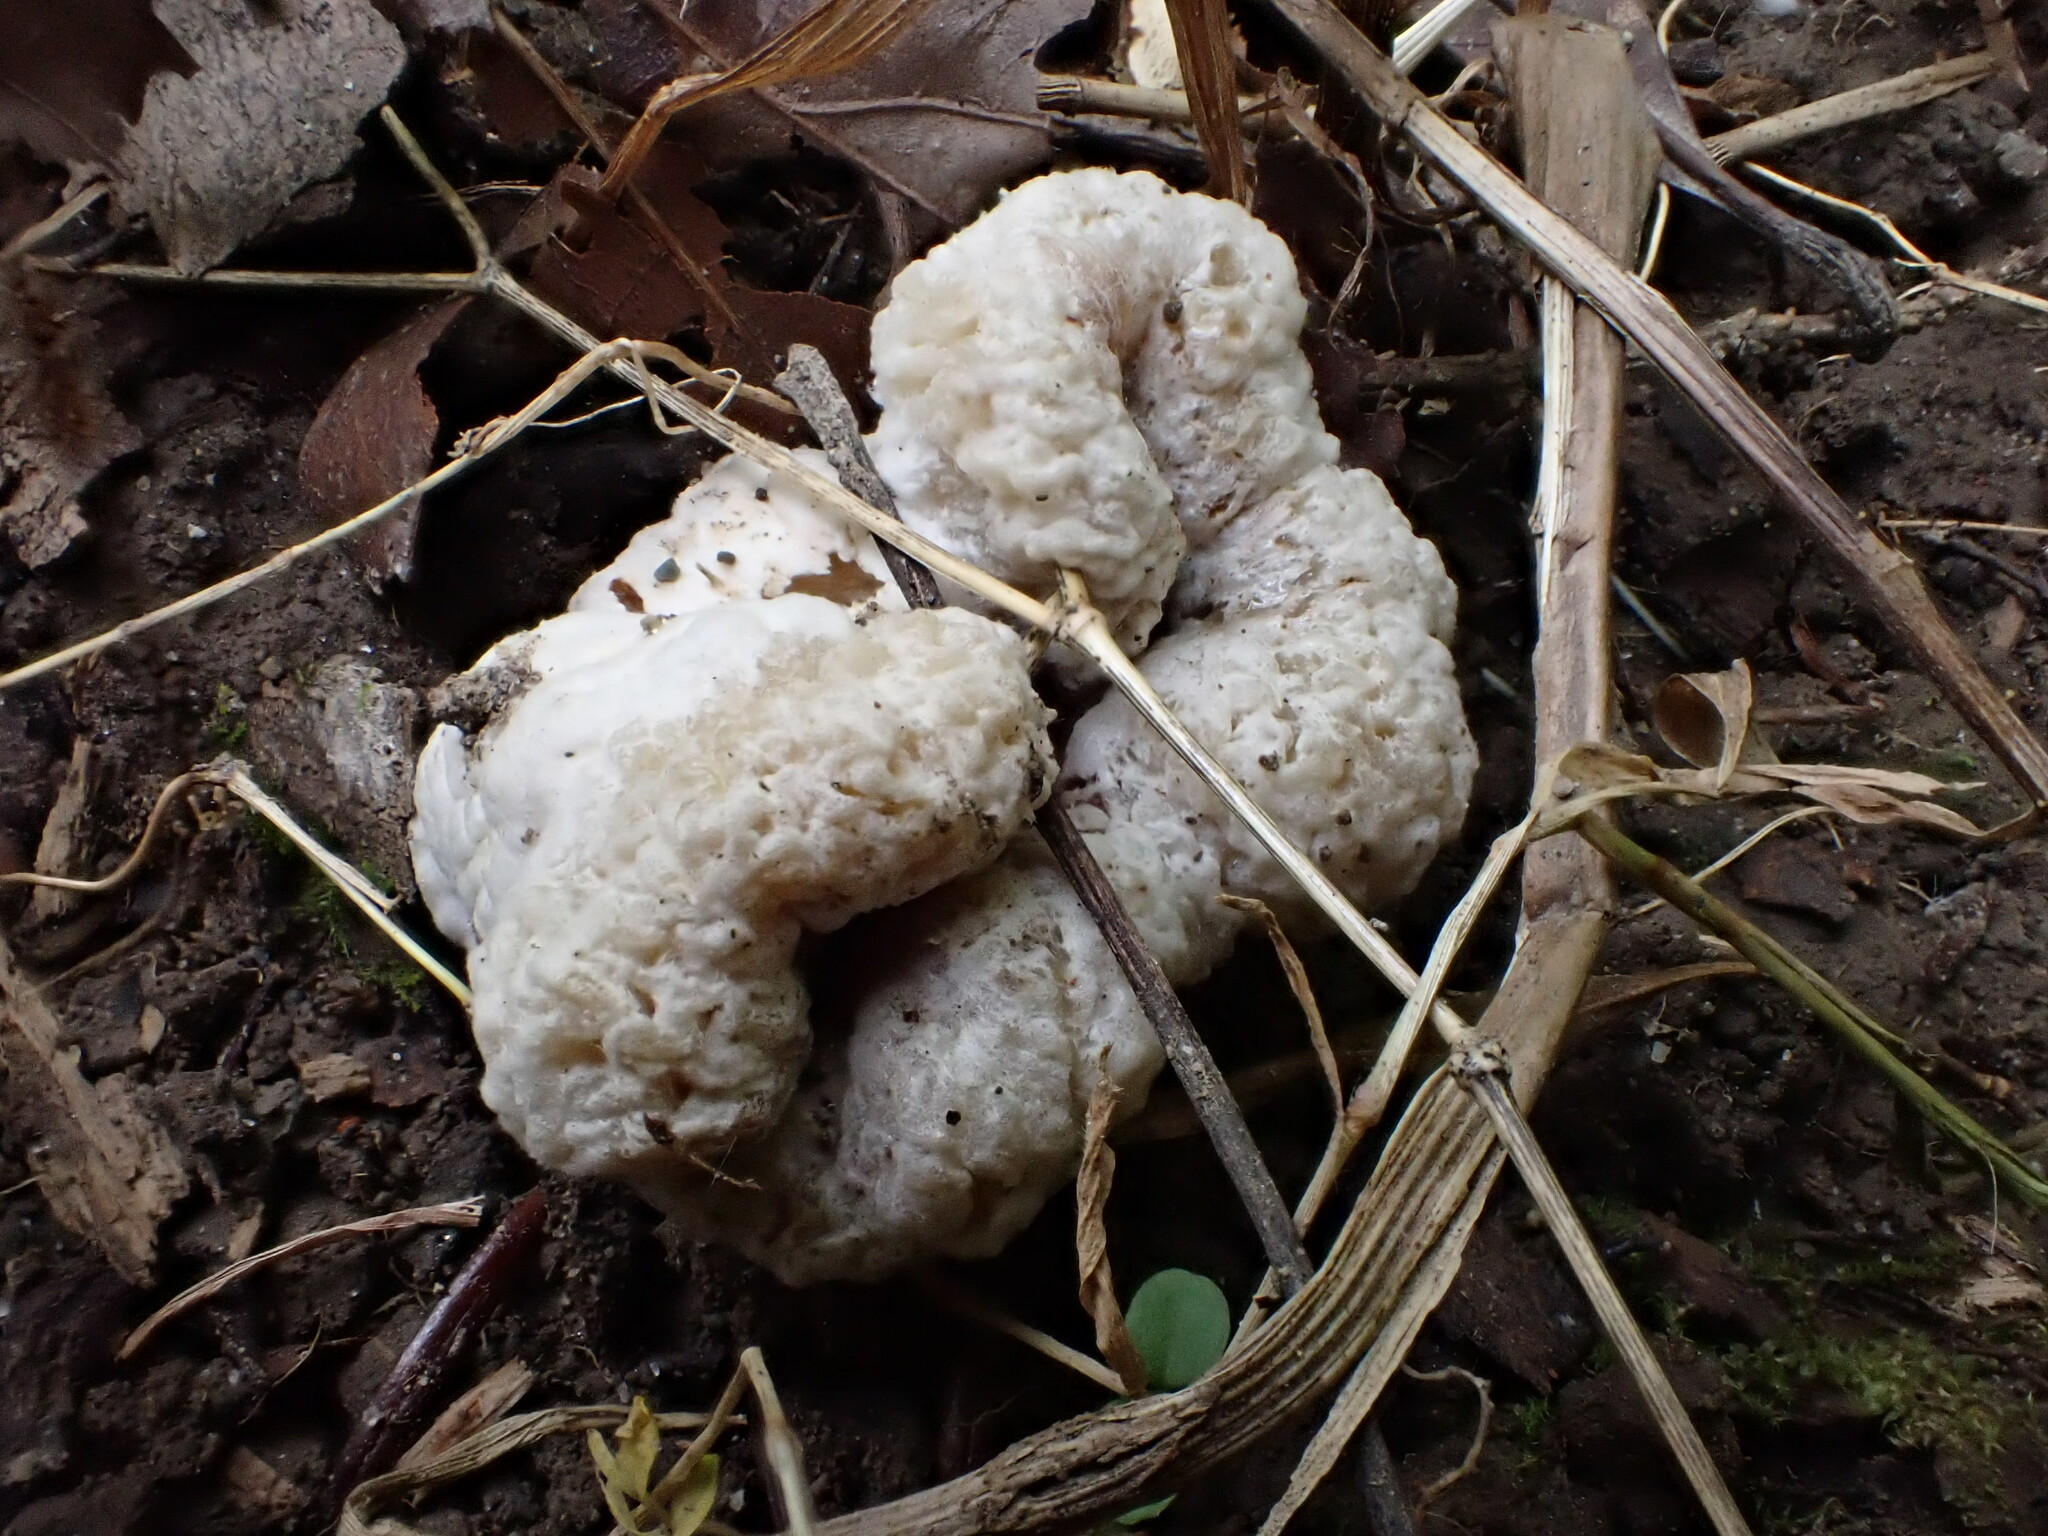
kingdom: Fungi
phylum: Basidiomycota
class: Agaricomycetes
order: Agaricales
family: Entolomataceae
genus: Entoloma
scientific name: Entoloma abortivum
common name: Aborted entoloma
